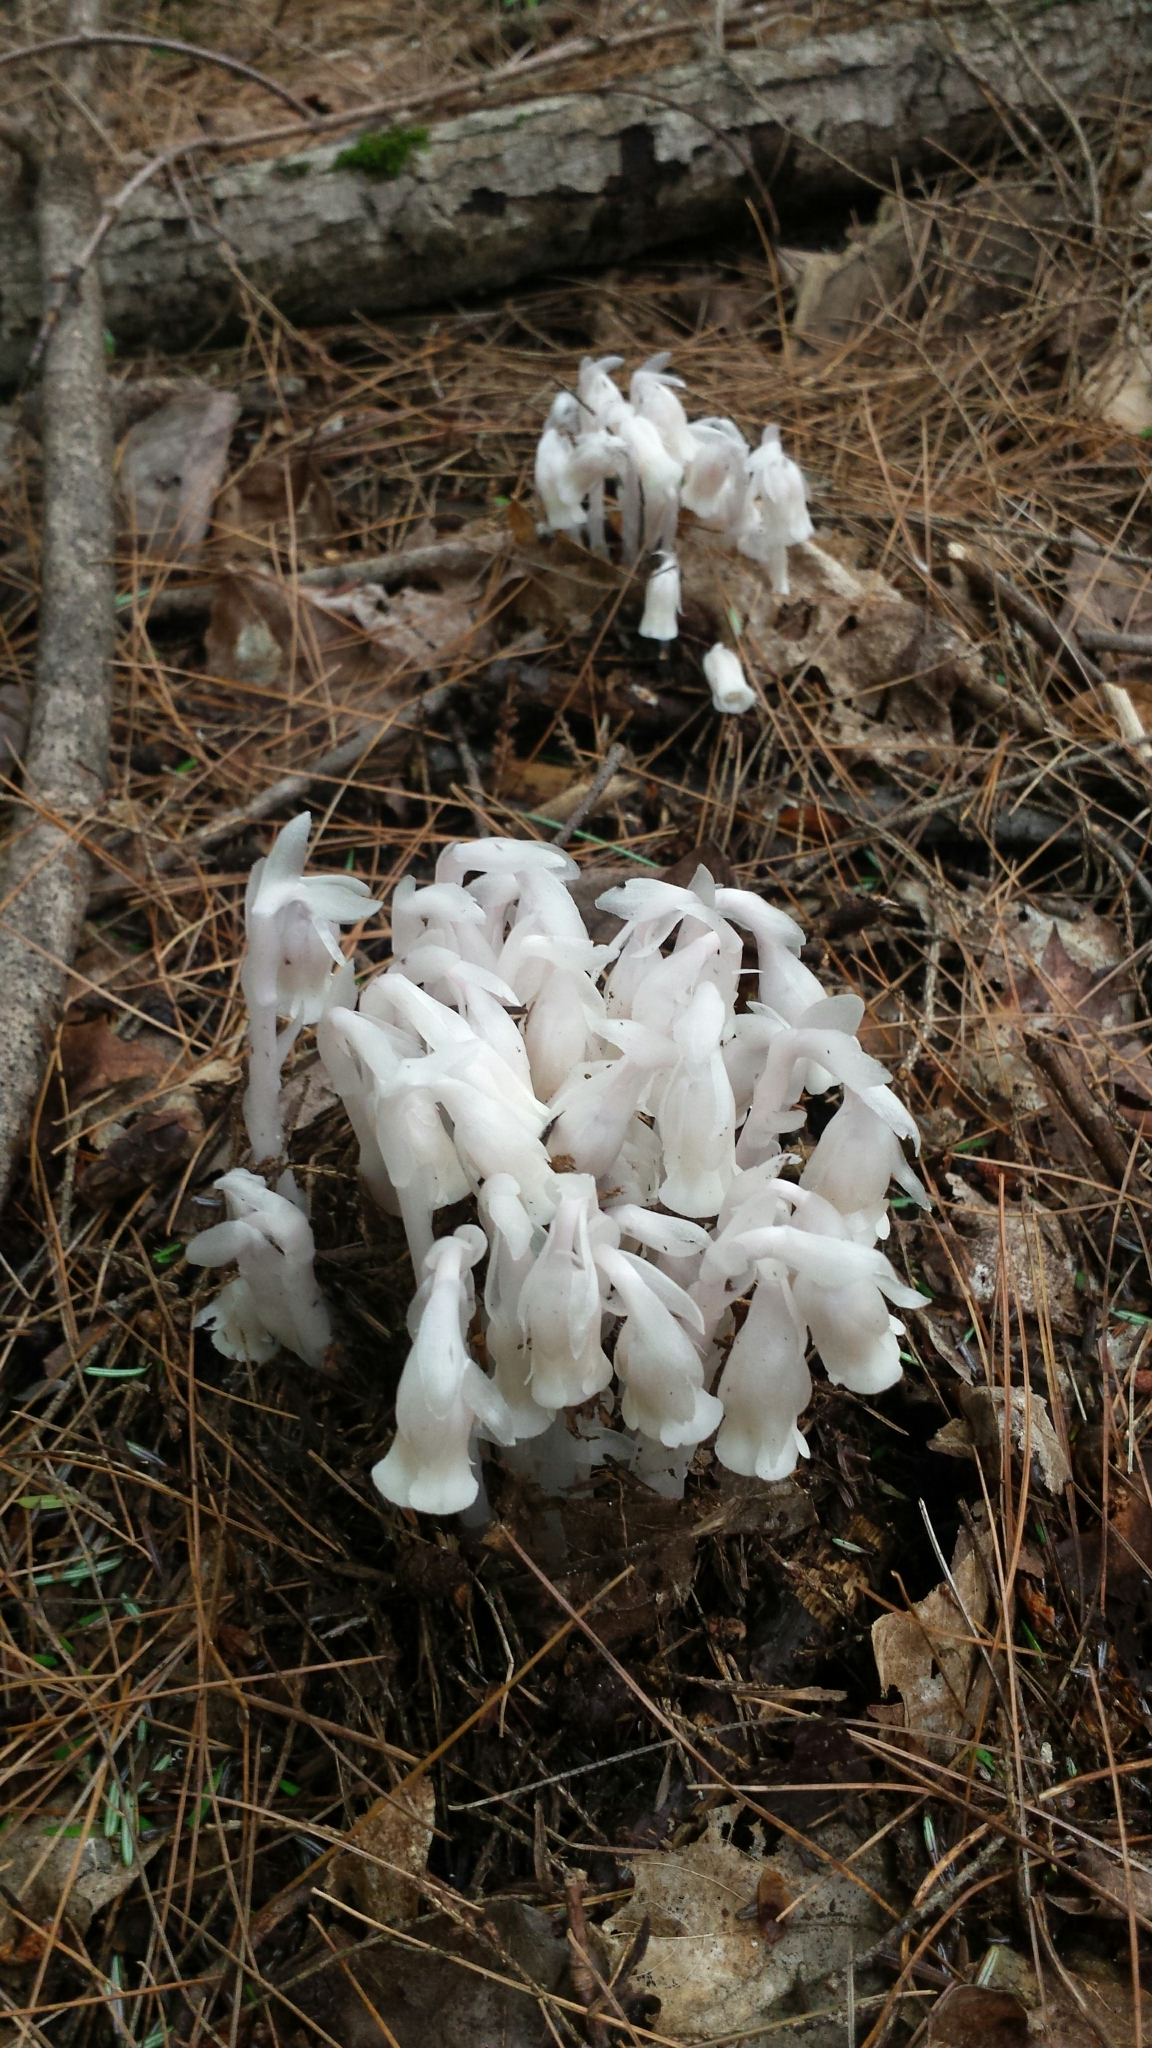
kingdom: Plantae
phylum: Tracheophyta
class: Magnoliopsida
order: Ericales
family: Ericaceae
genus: Monotropa
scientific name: Monotropa uniflora
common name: Convulsion root
